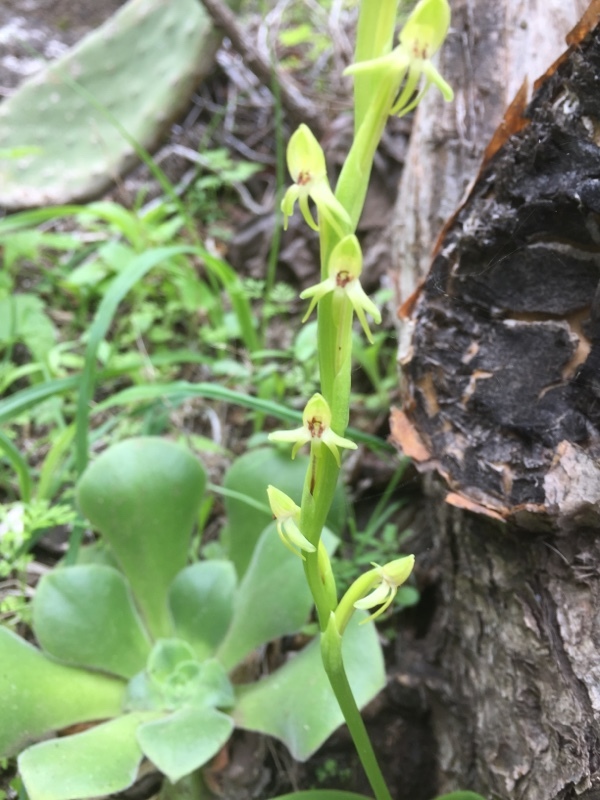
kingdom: Plantae
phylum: Tracheophyta
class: Liliopsida
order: Asparagales
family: Orchidaceae
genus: Habenaria
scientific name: Habenaria tridactylites
